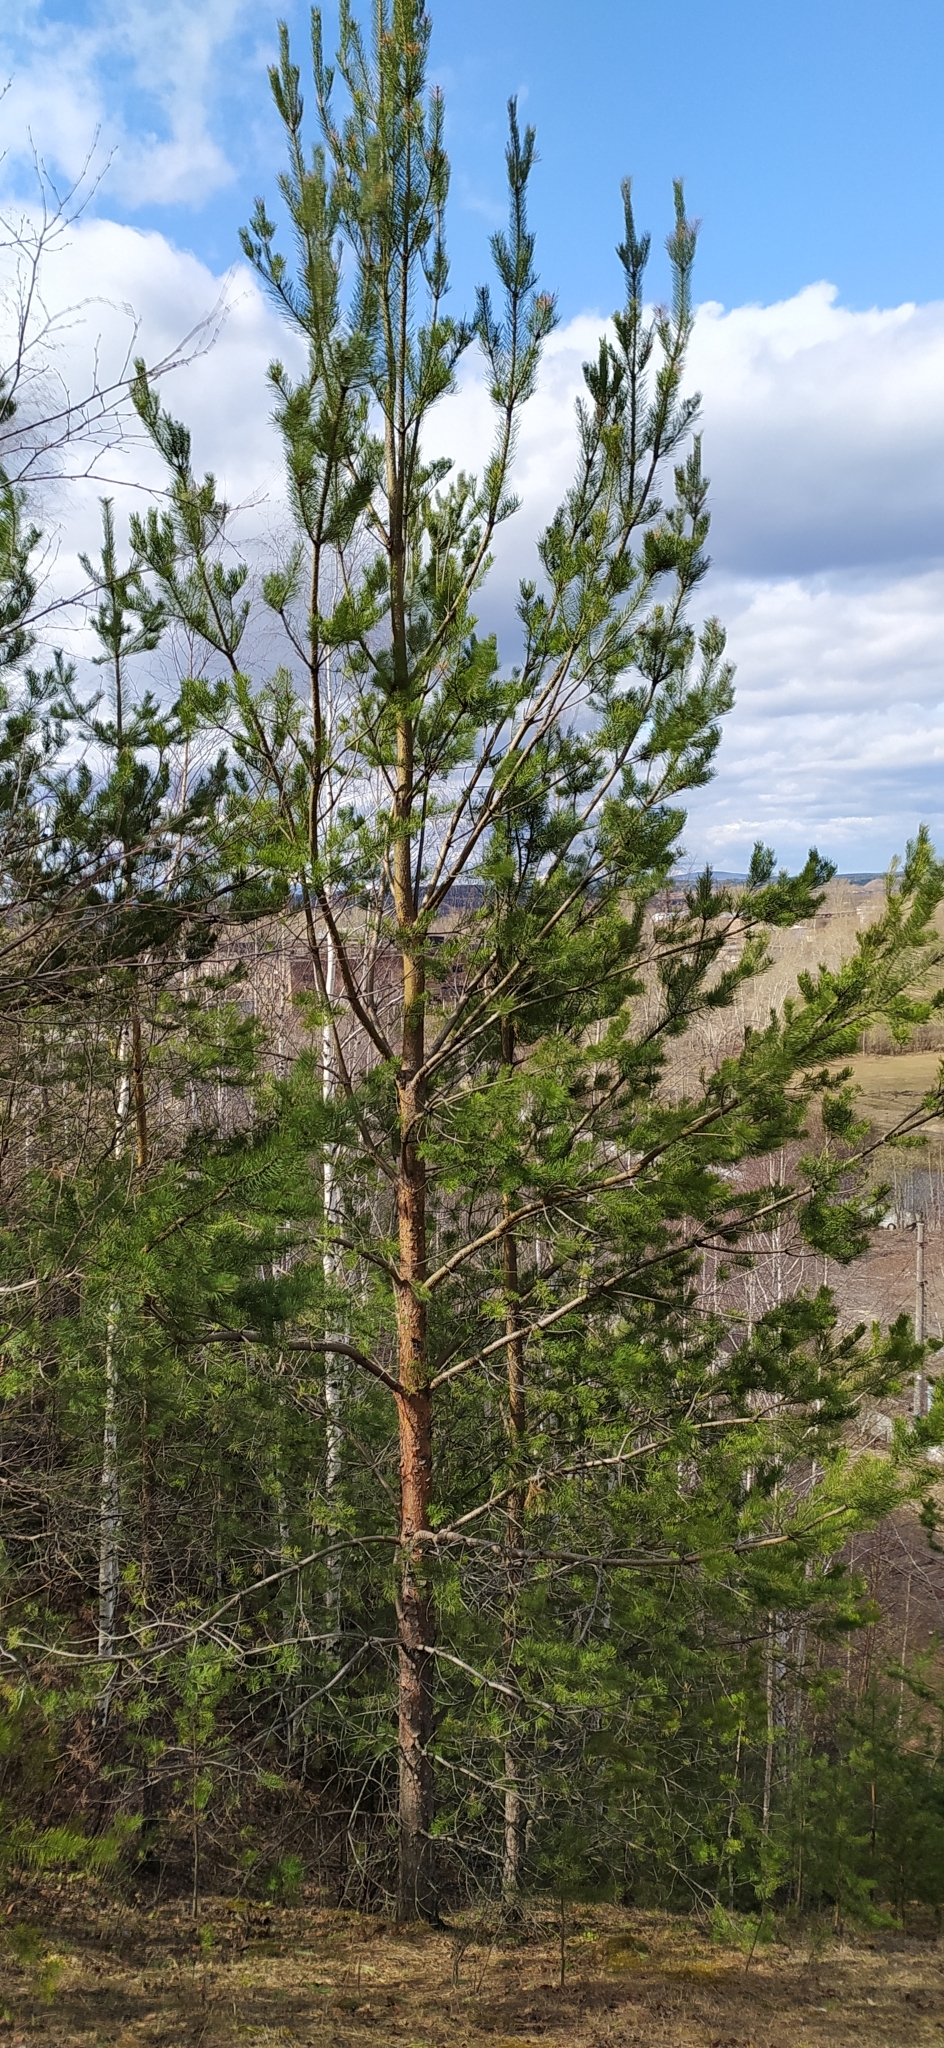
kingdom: Plantae
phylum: Tracheophyta
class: Pinopsida
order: Pinales
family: Pinaceae
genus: Pinus
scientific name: Pinus sylvestris
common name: Scots pine
